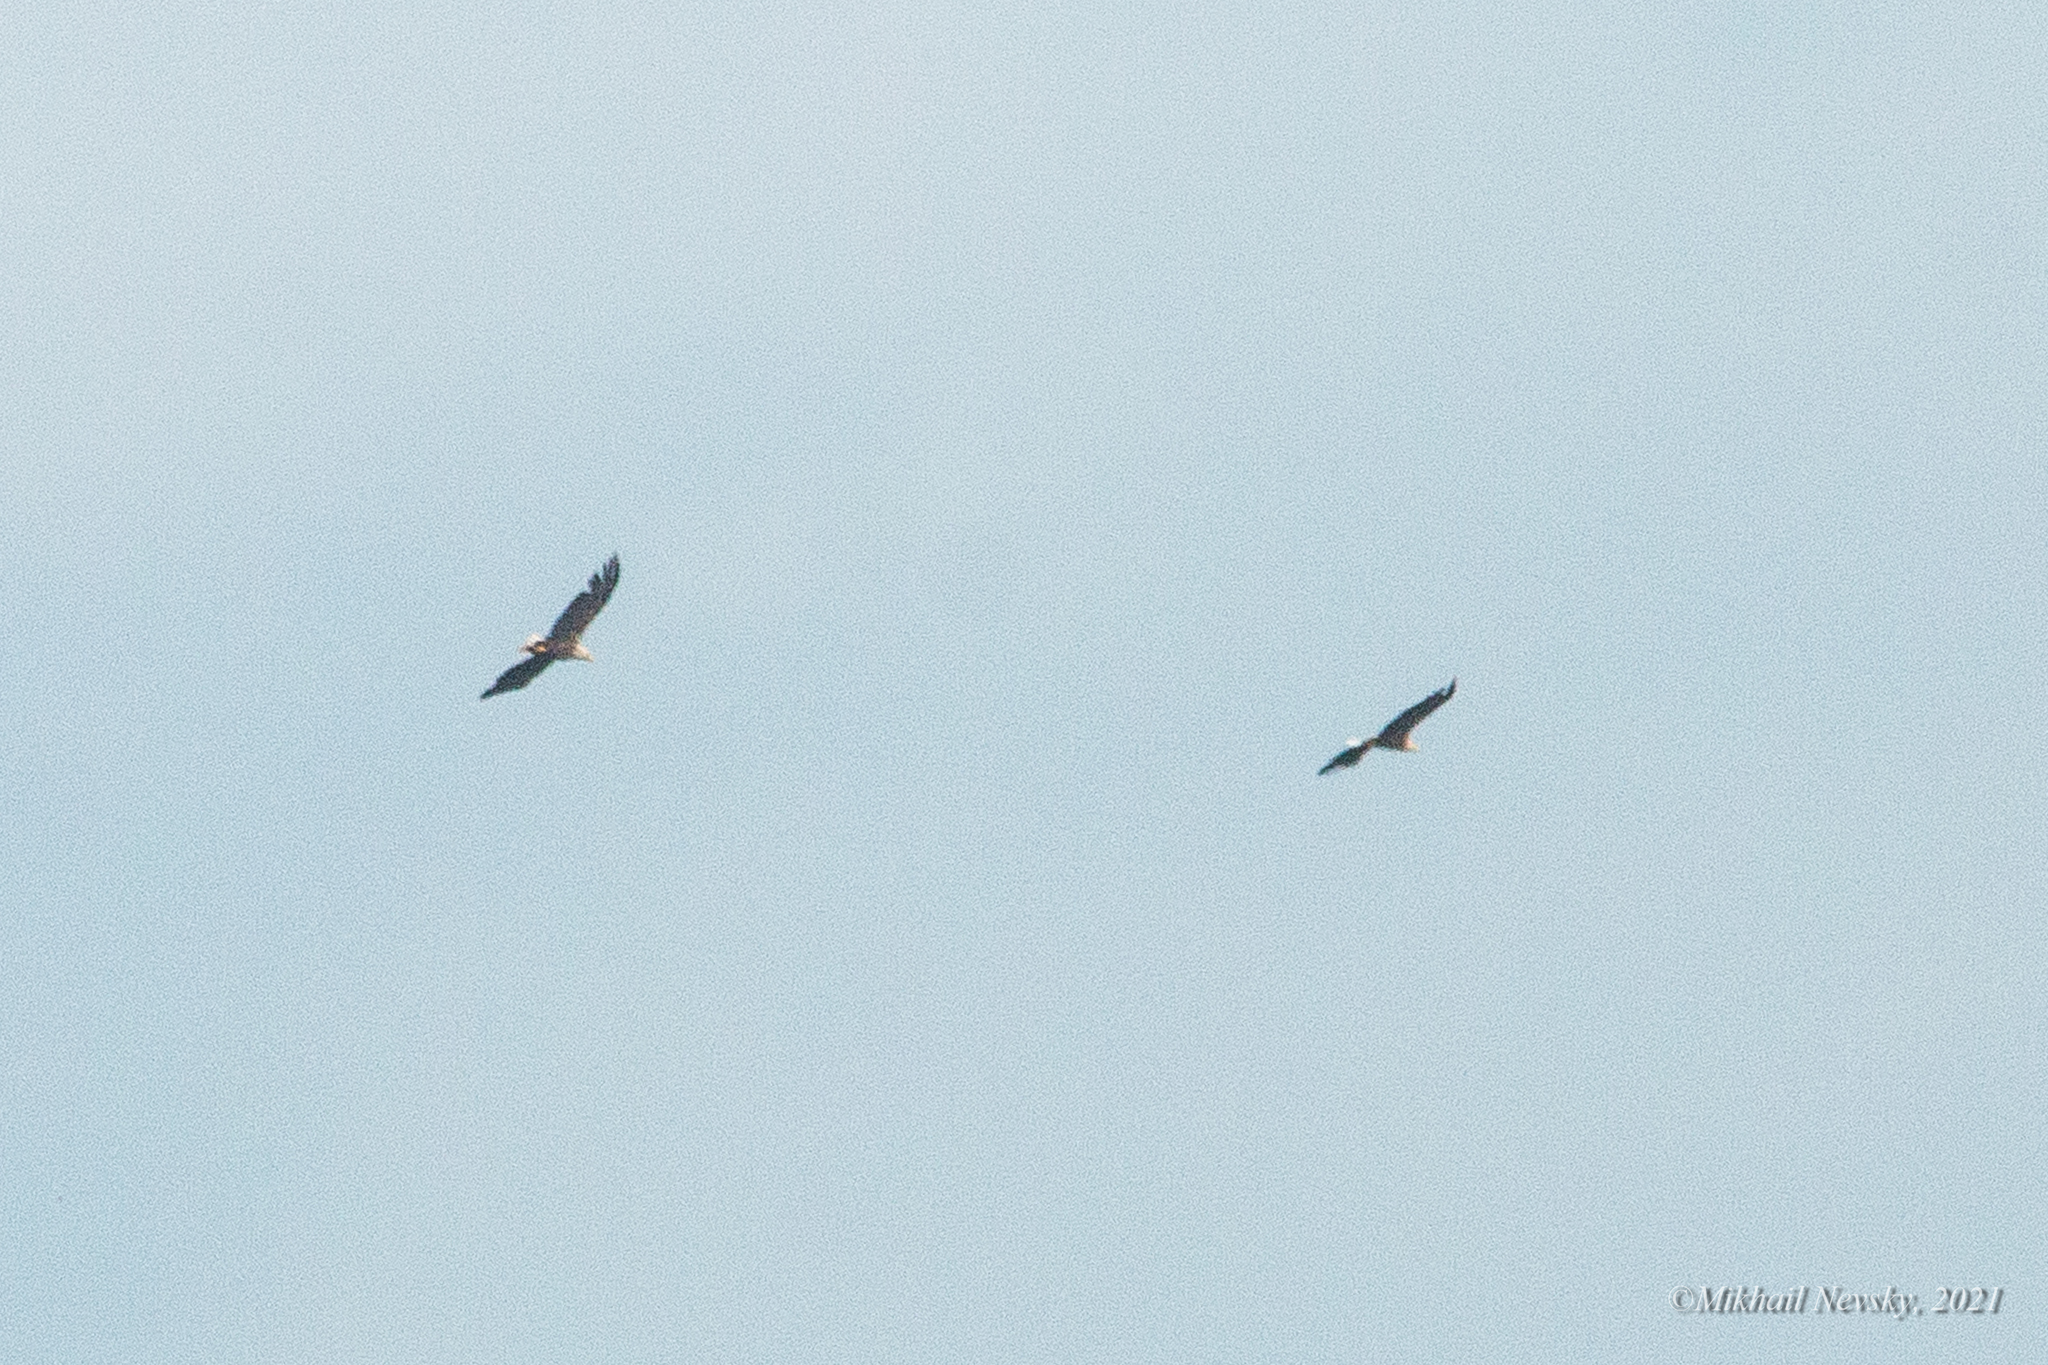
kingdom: Animalia
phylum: Chordata
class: Aves
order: Accipitriformes
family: Accipitridae
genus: Haliaeetus
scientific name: Haliaeetus albicilla
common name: White-tailed eagle
